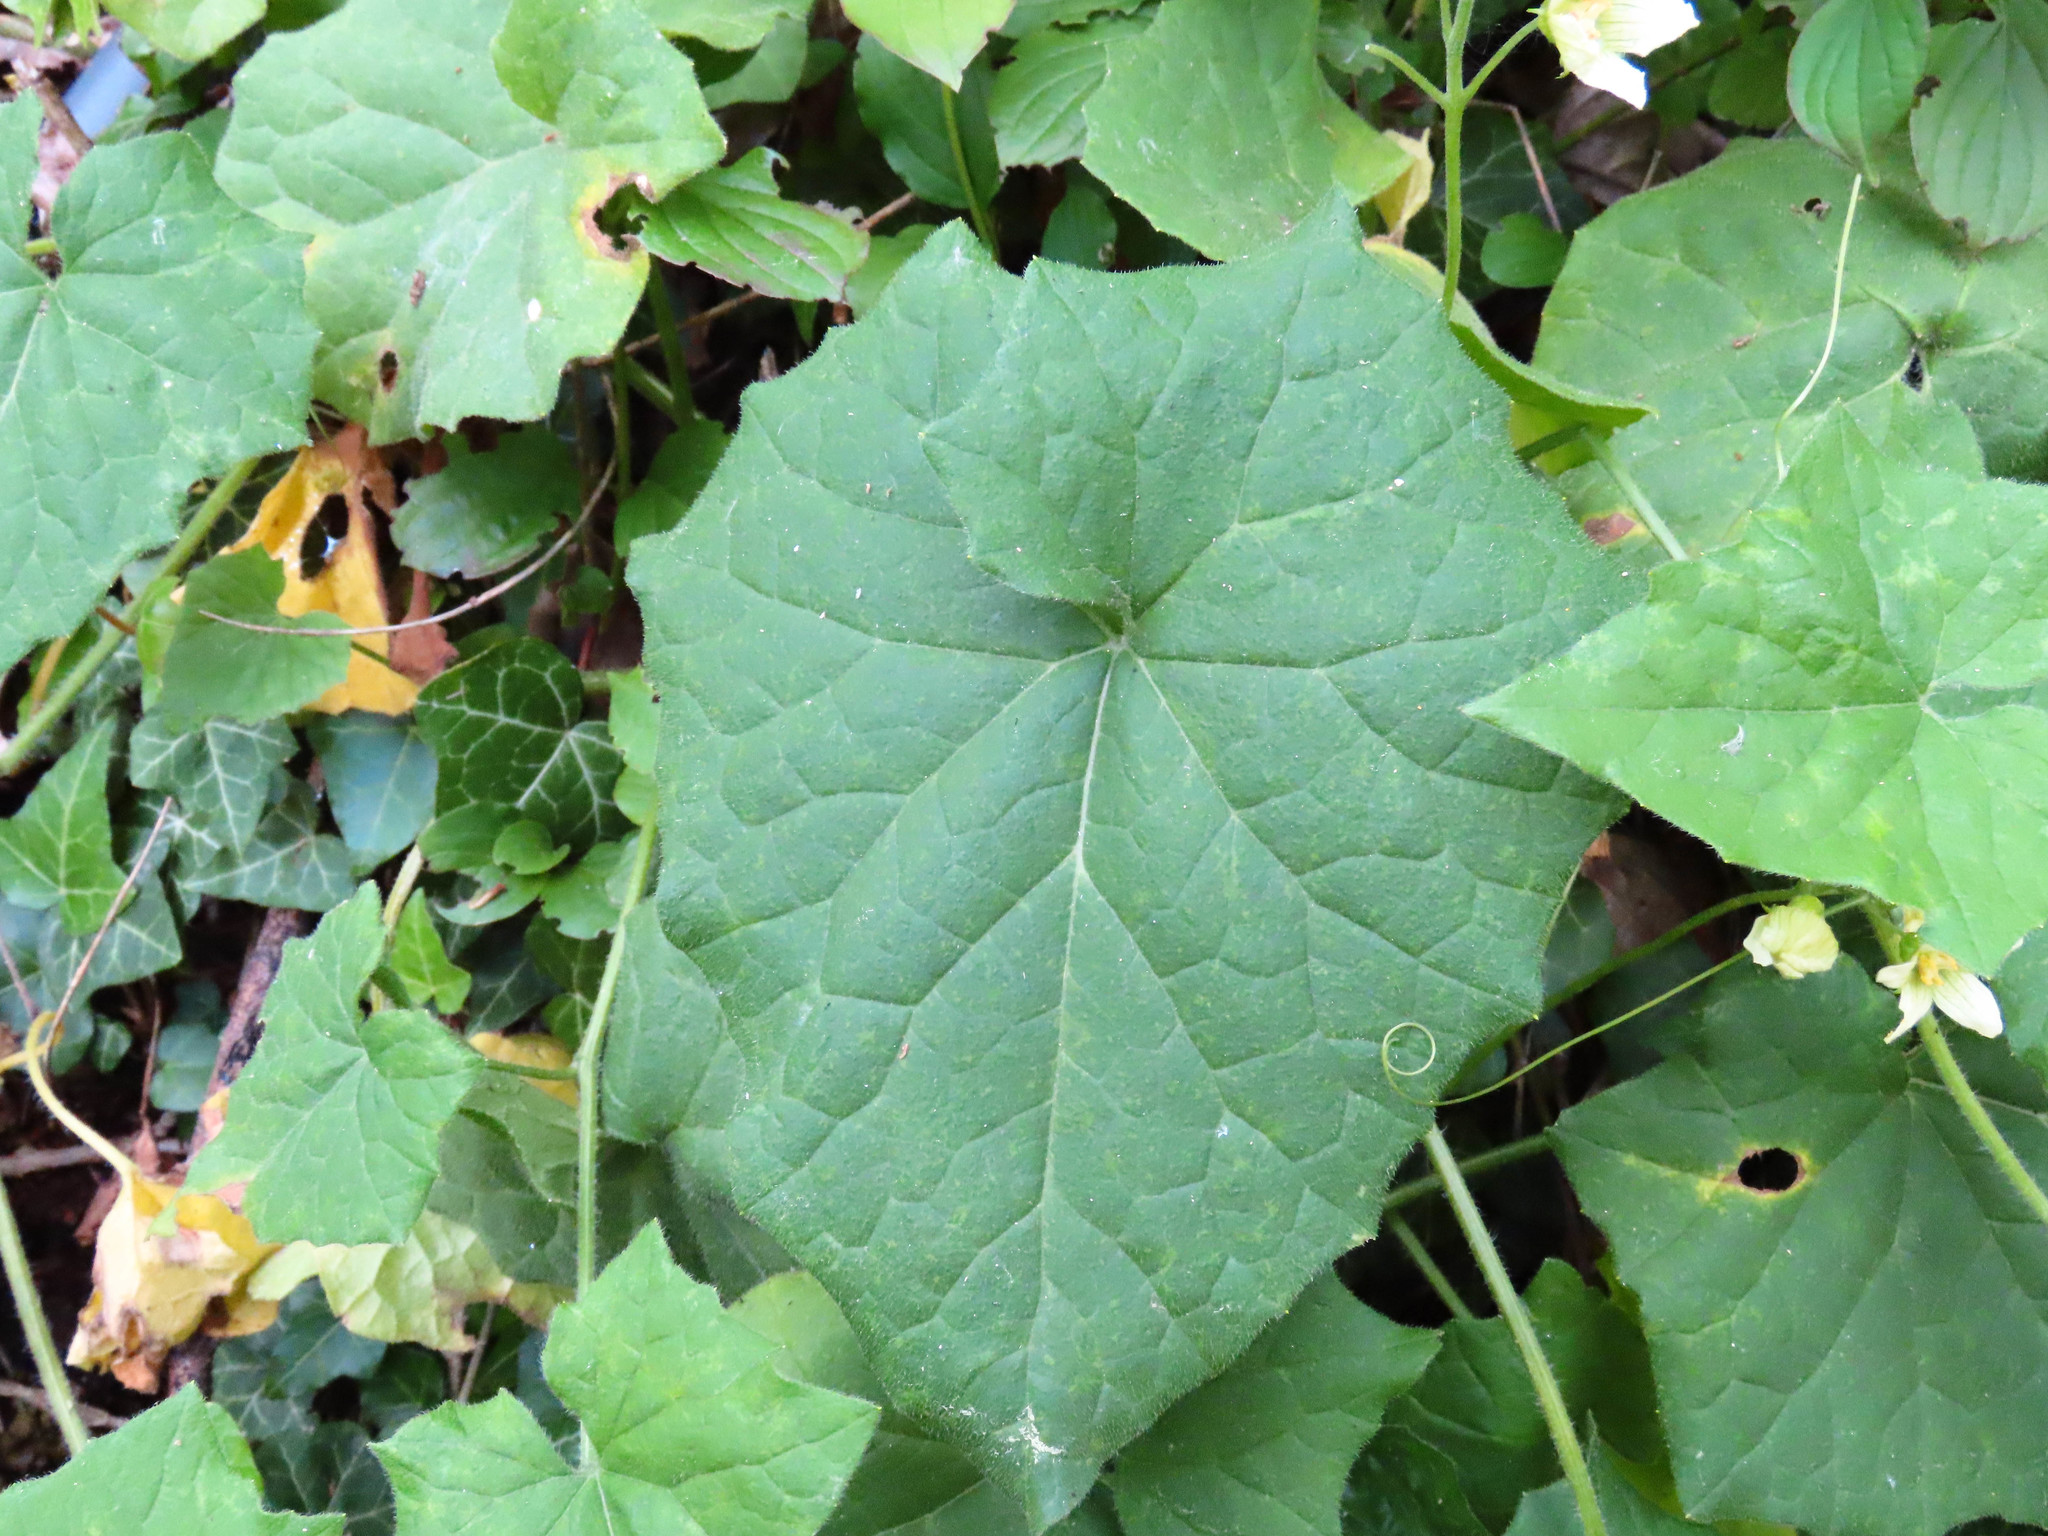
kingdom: Plantae
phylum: Tracheophyta
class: Magnoliopsida
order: Cucurbitales
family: Cucurbitaceae
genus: Bryonia
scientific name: Bryonia dioica
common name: White bryony
